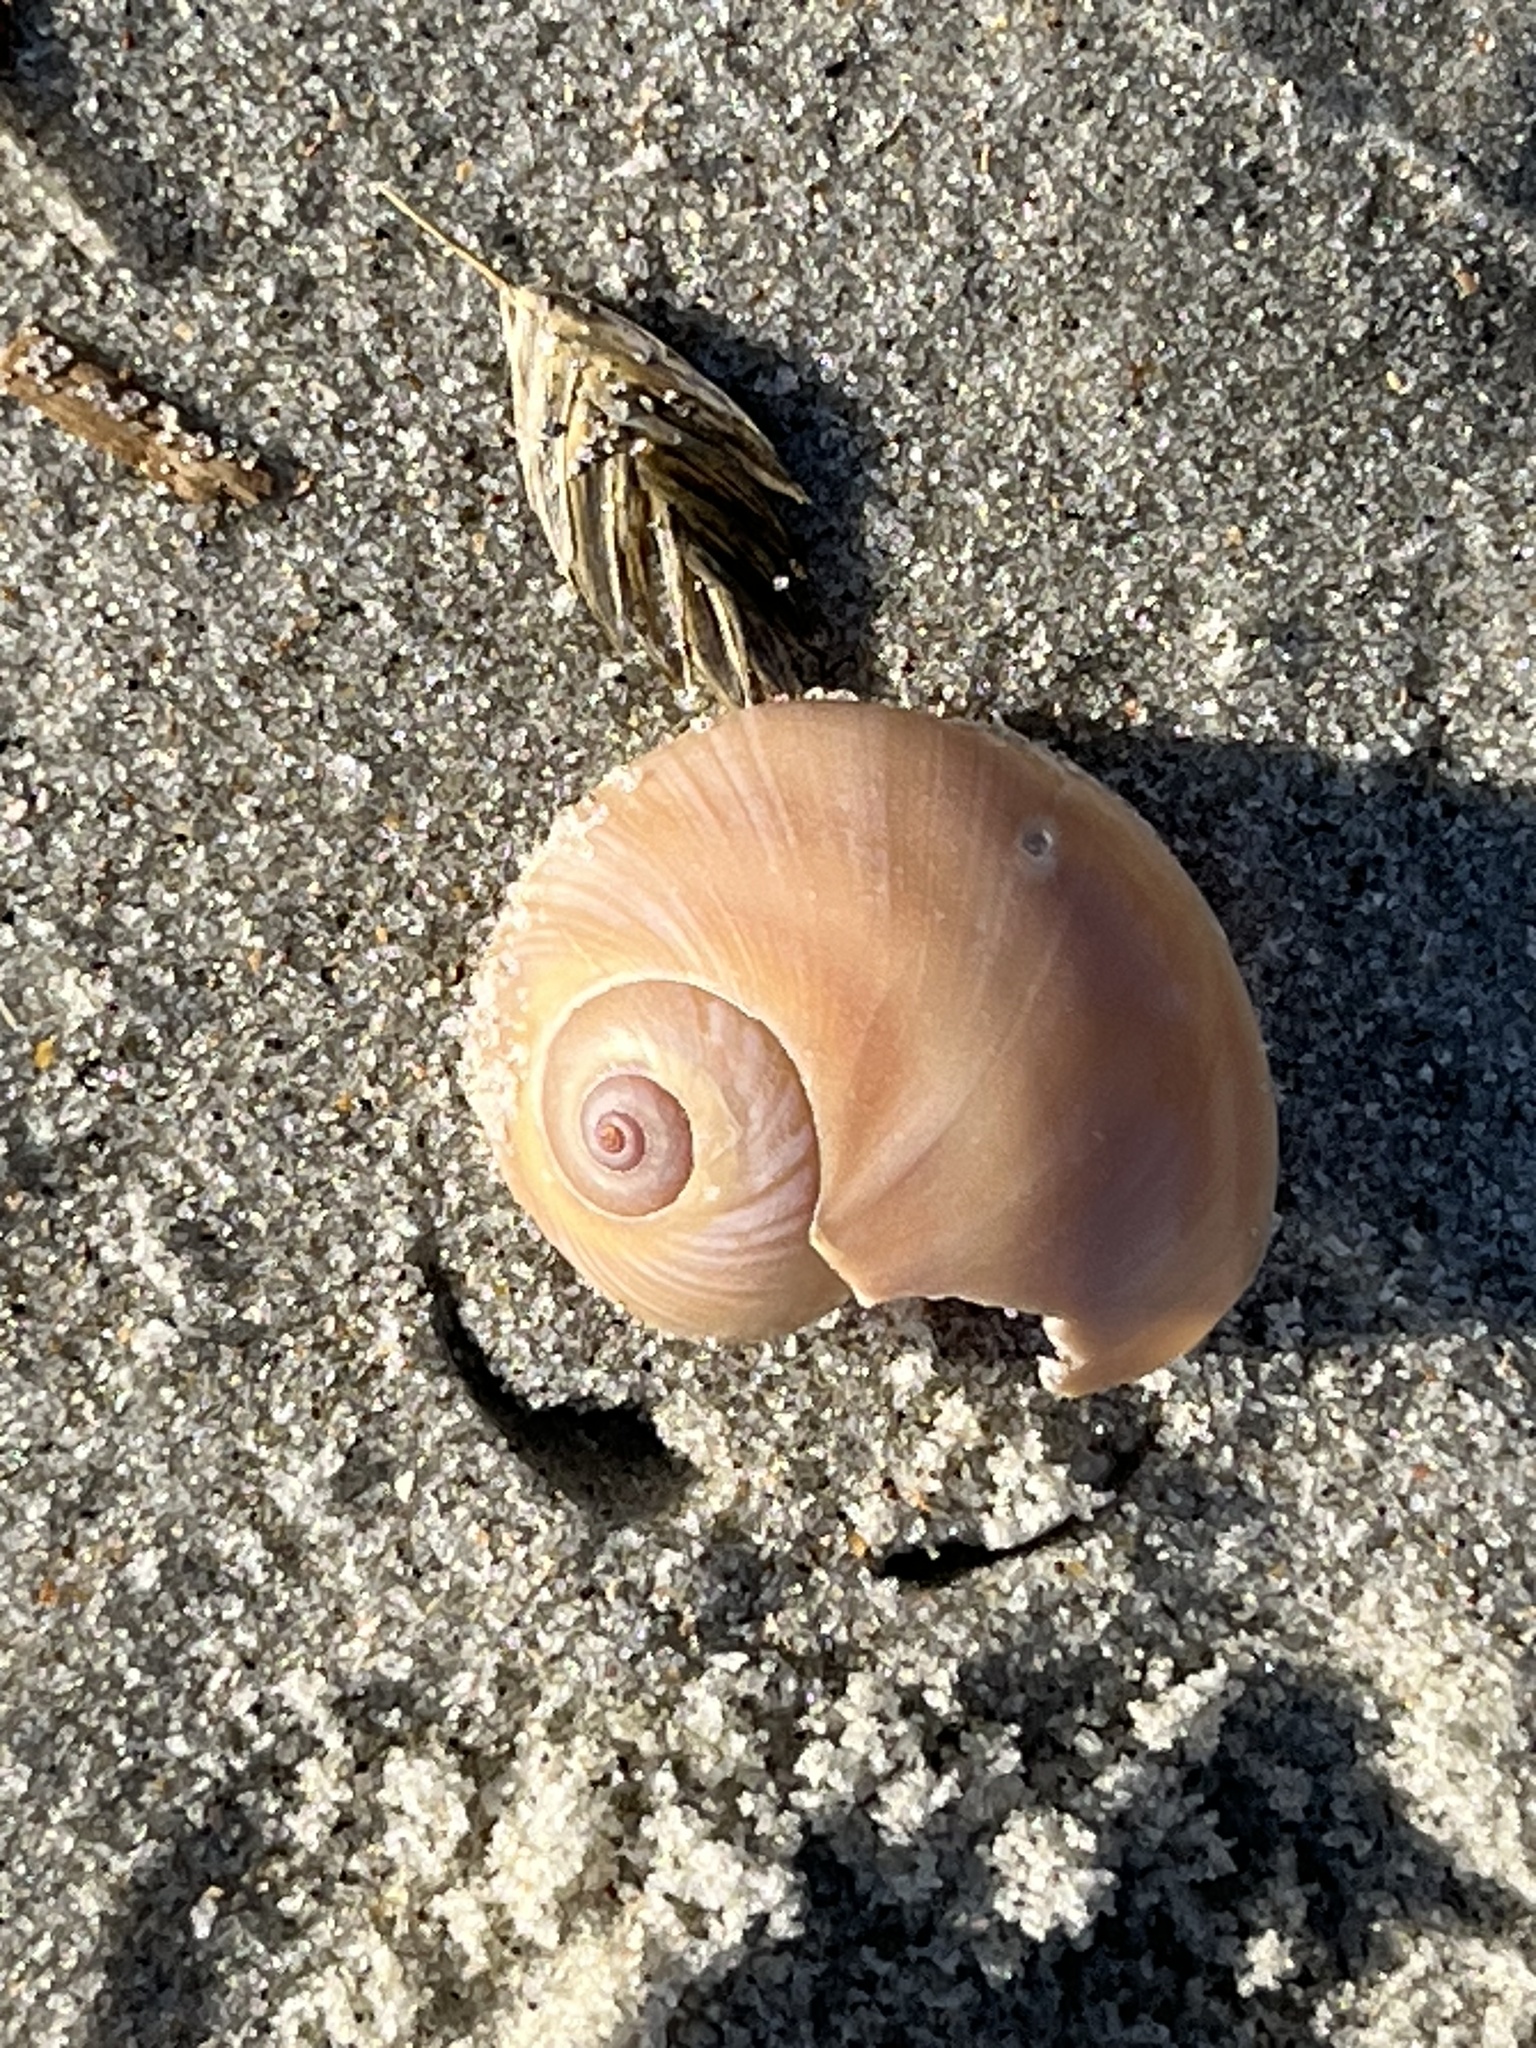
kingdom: Animalia
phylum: Mollusca
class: Gastropoda
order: Littorinimorpha
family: Naticidae
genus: Neverita
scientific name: Neverita duplicata
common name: Lobed moonsnail
